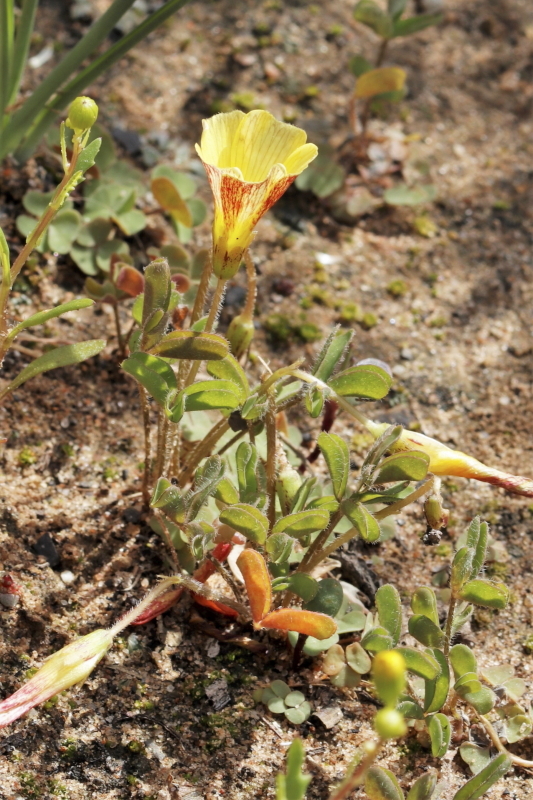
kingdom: Plantae
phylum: Tracheophyta
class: Magnoliopsida
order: Oxalidales
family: Oxalidaceae
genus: Oxalis
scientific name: Oxalis obtusa
